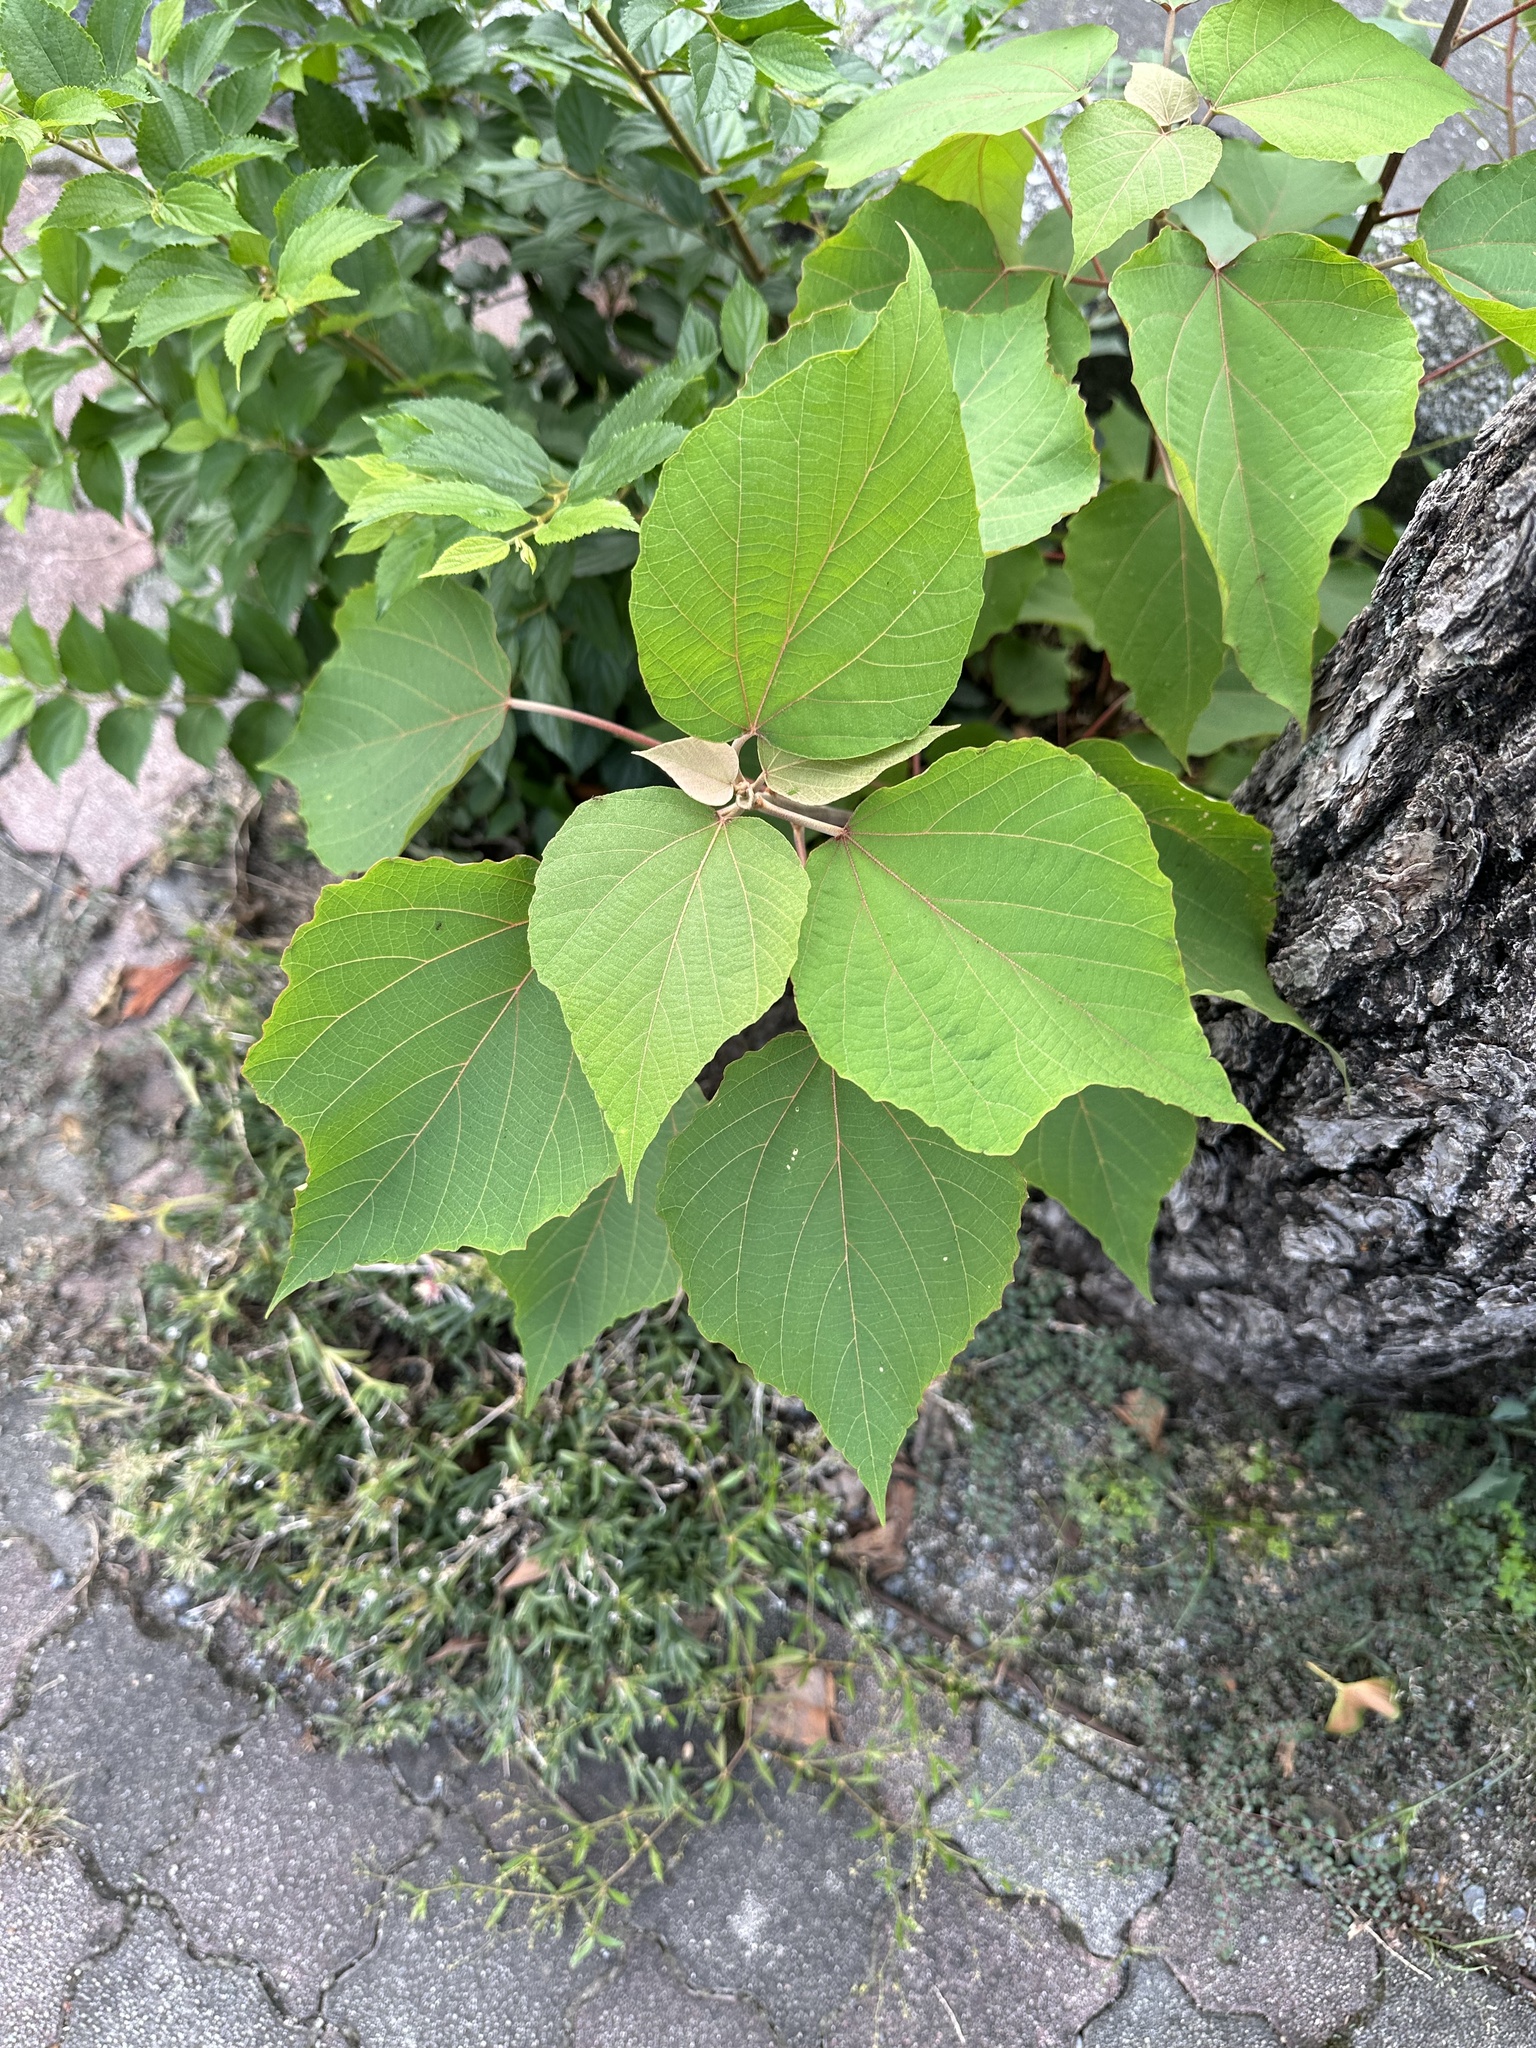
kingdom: Plantae
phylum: Tracheophyta
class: Magnoliopsida
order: Malpighiales
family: Euphorbiaceae
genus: Mallotus
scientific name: Mallotus japonicus
